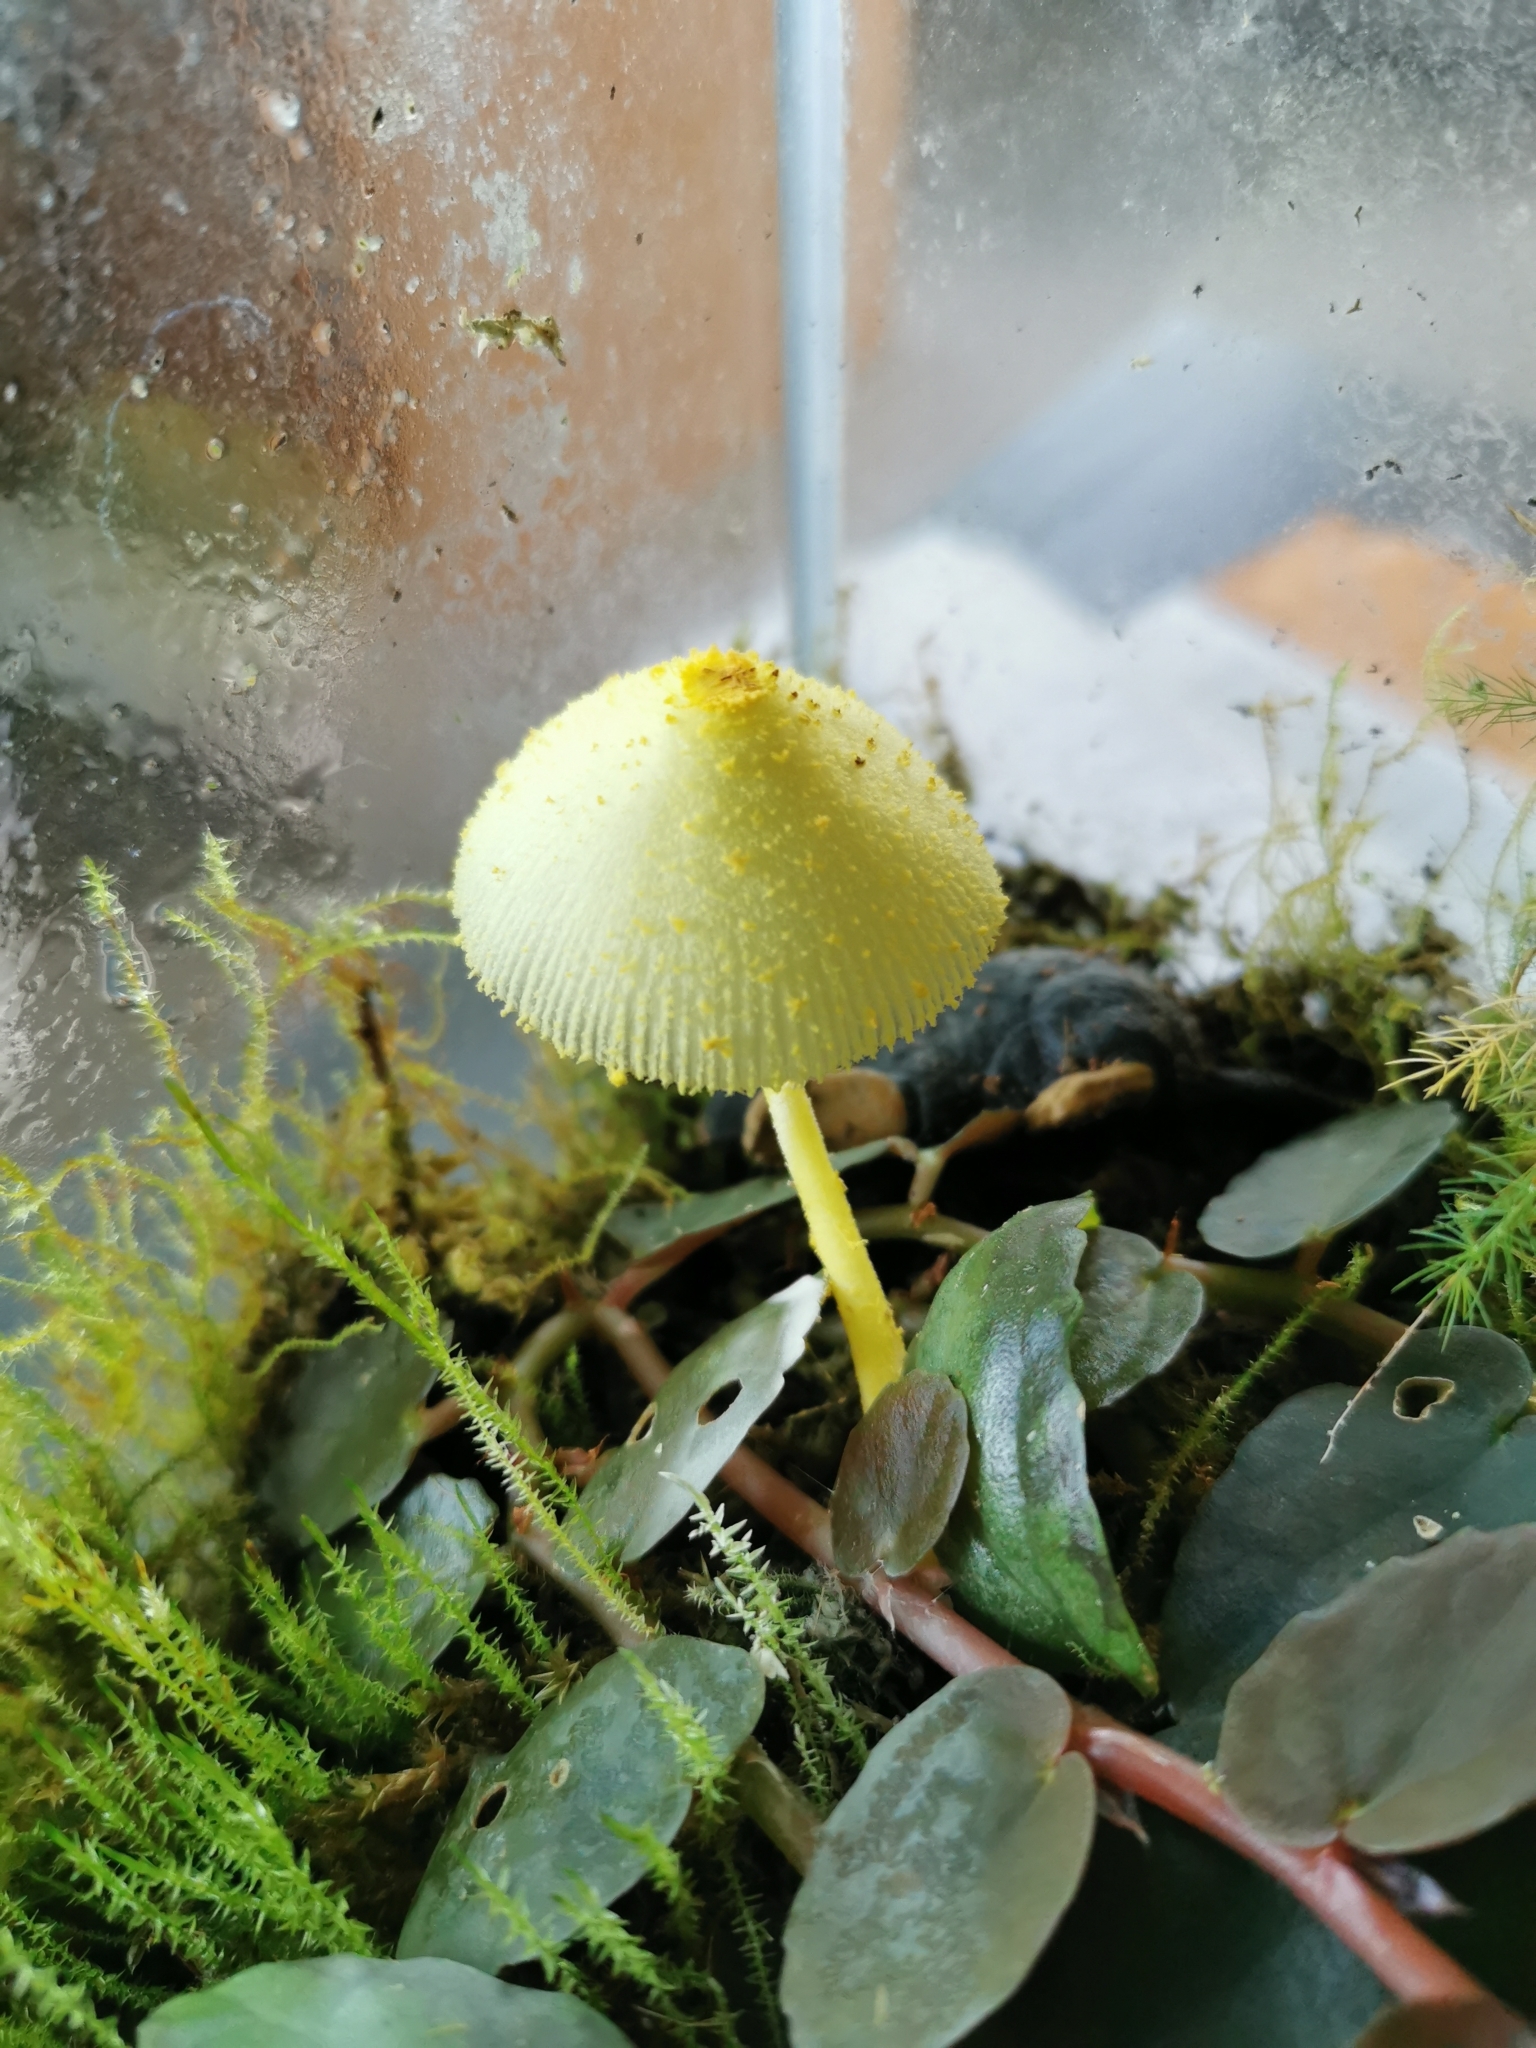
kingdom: Fungi
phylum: Basidiomycota
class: Agaricomycetes
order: Agaricales
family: Agaricaceae
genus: Leucocoprinus
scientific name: Leucocoprinus birnbaumii
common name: Plantpot dapperling
